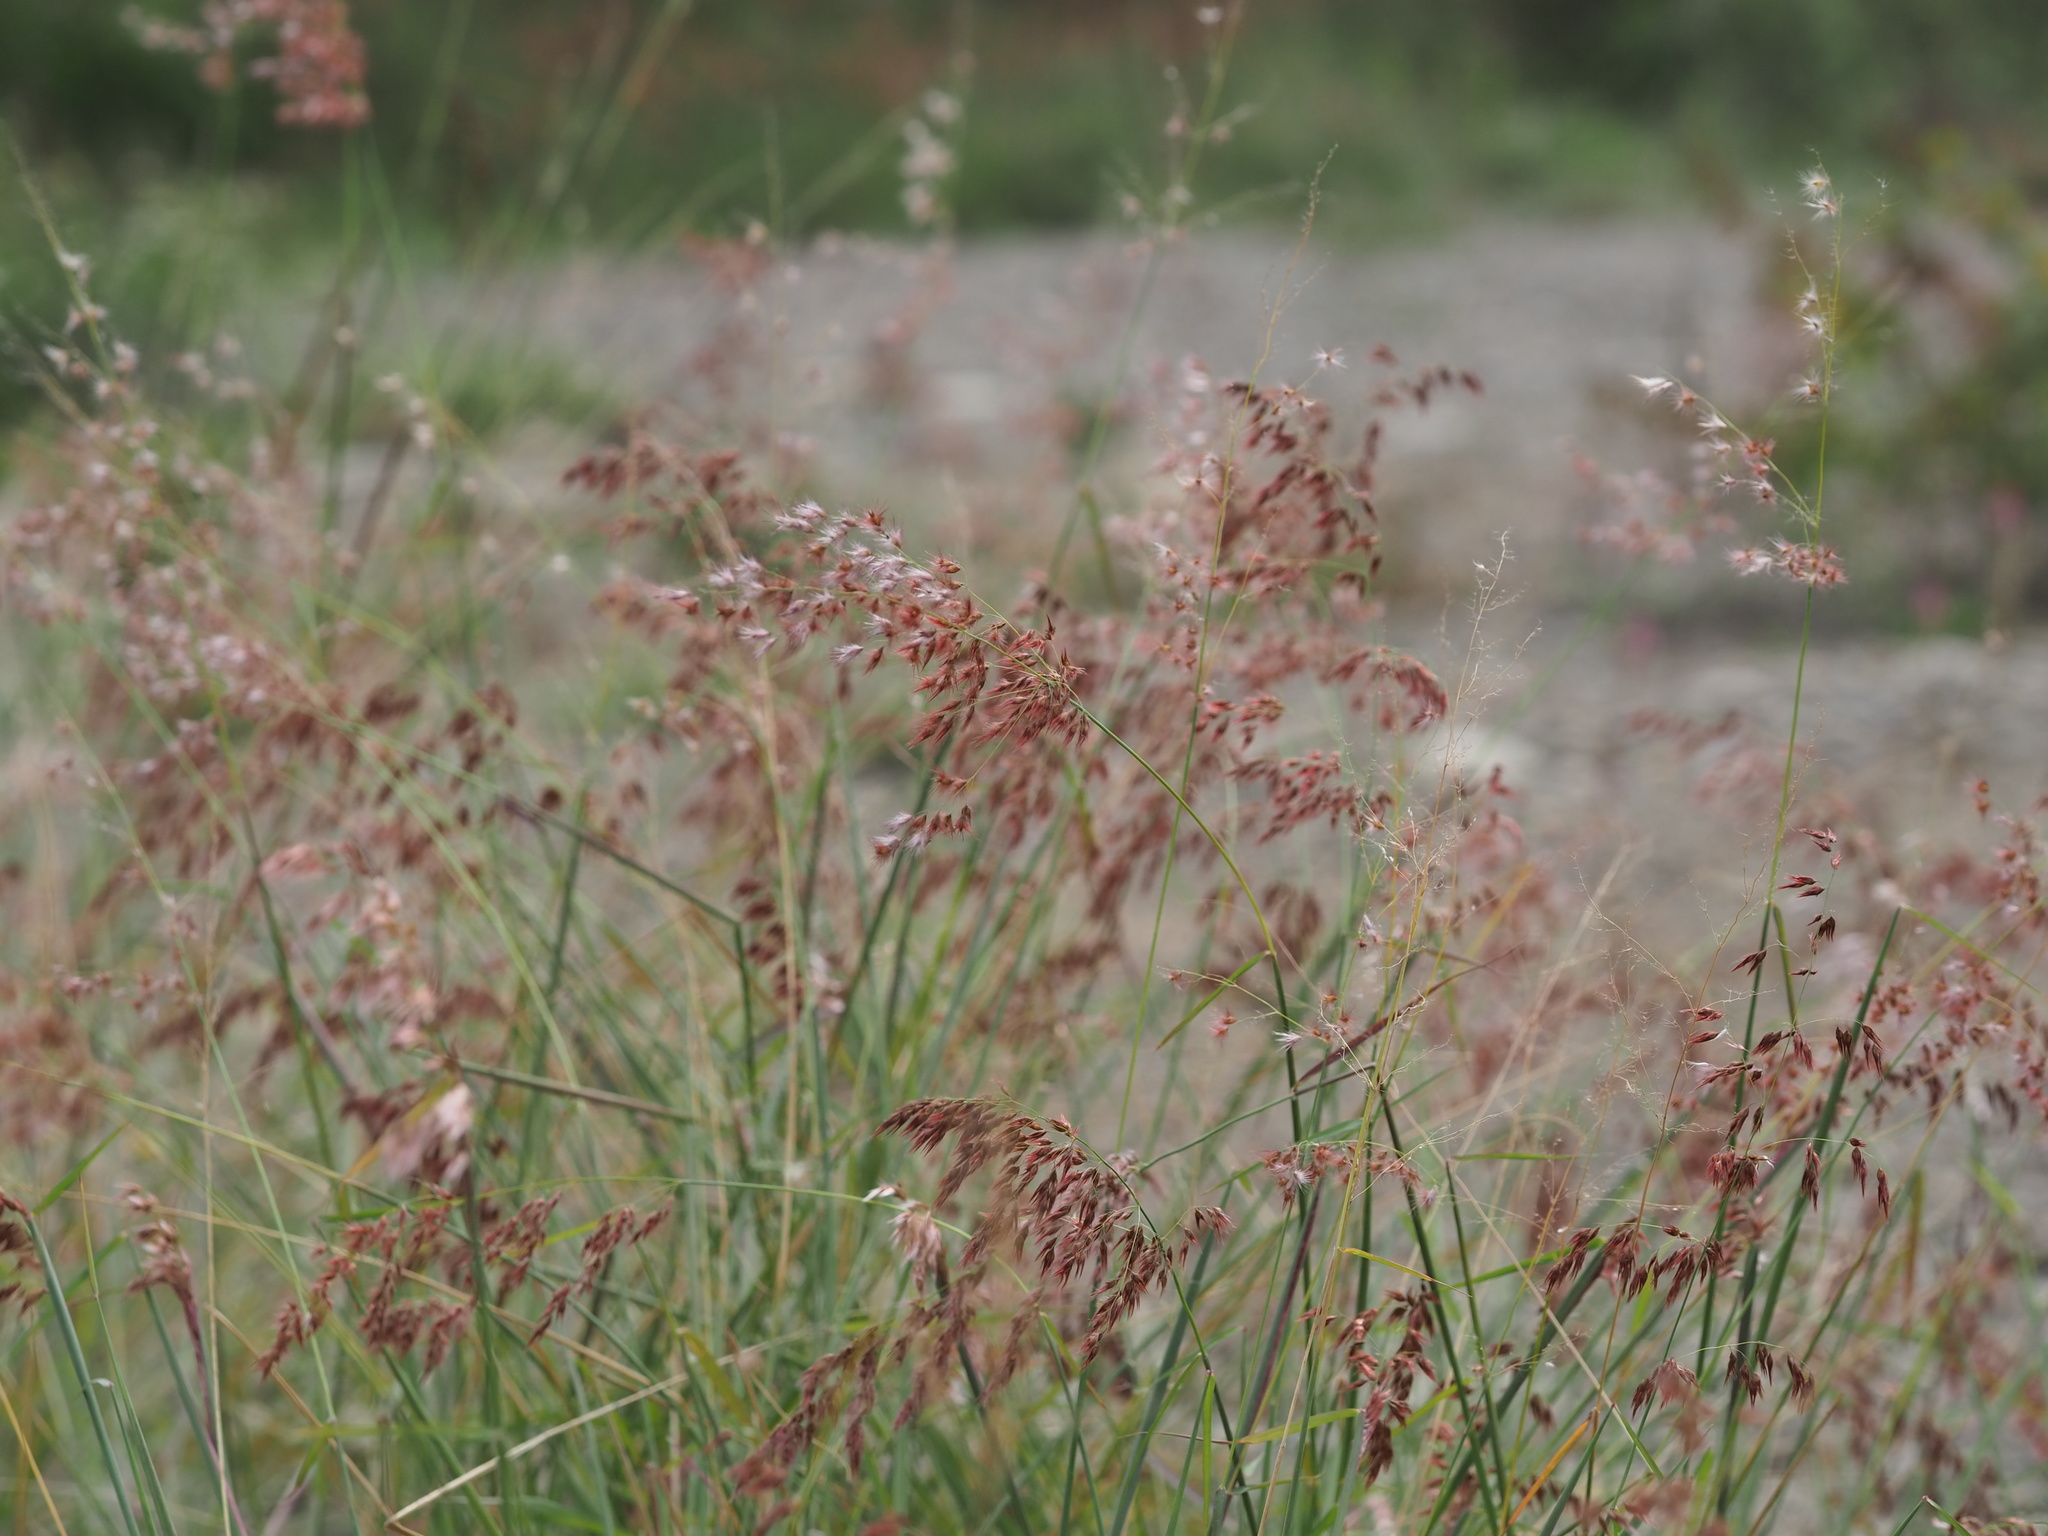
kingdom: Plantae
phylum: Tracheophyta
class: Liliopsida
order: Poales
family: Poaceae
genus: Melinis
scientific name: Melinis repens
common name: Rose natal grass
